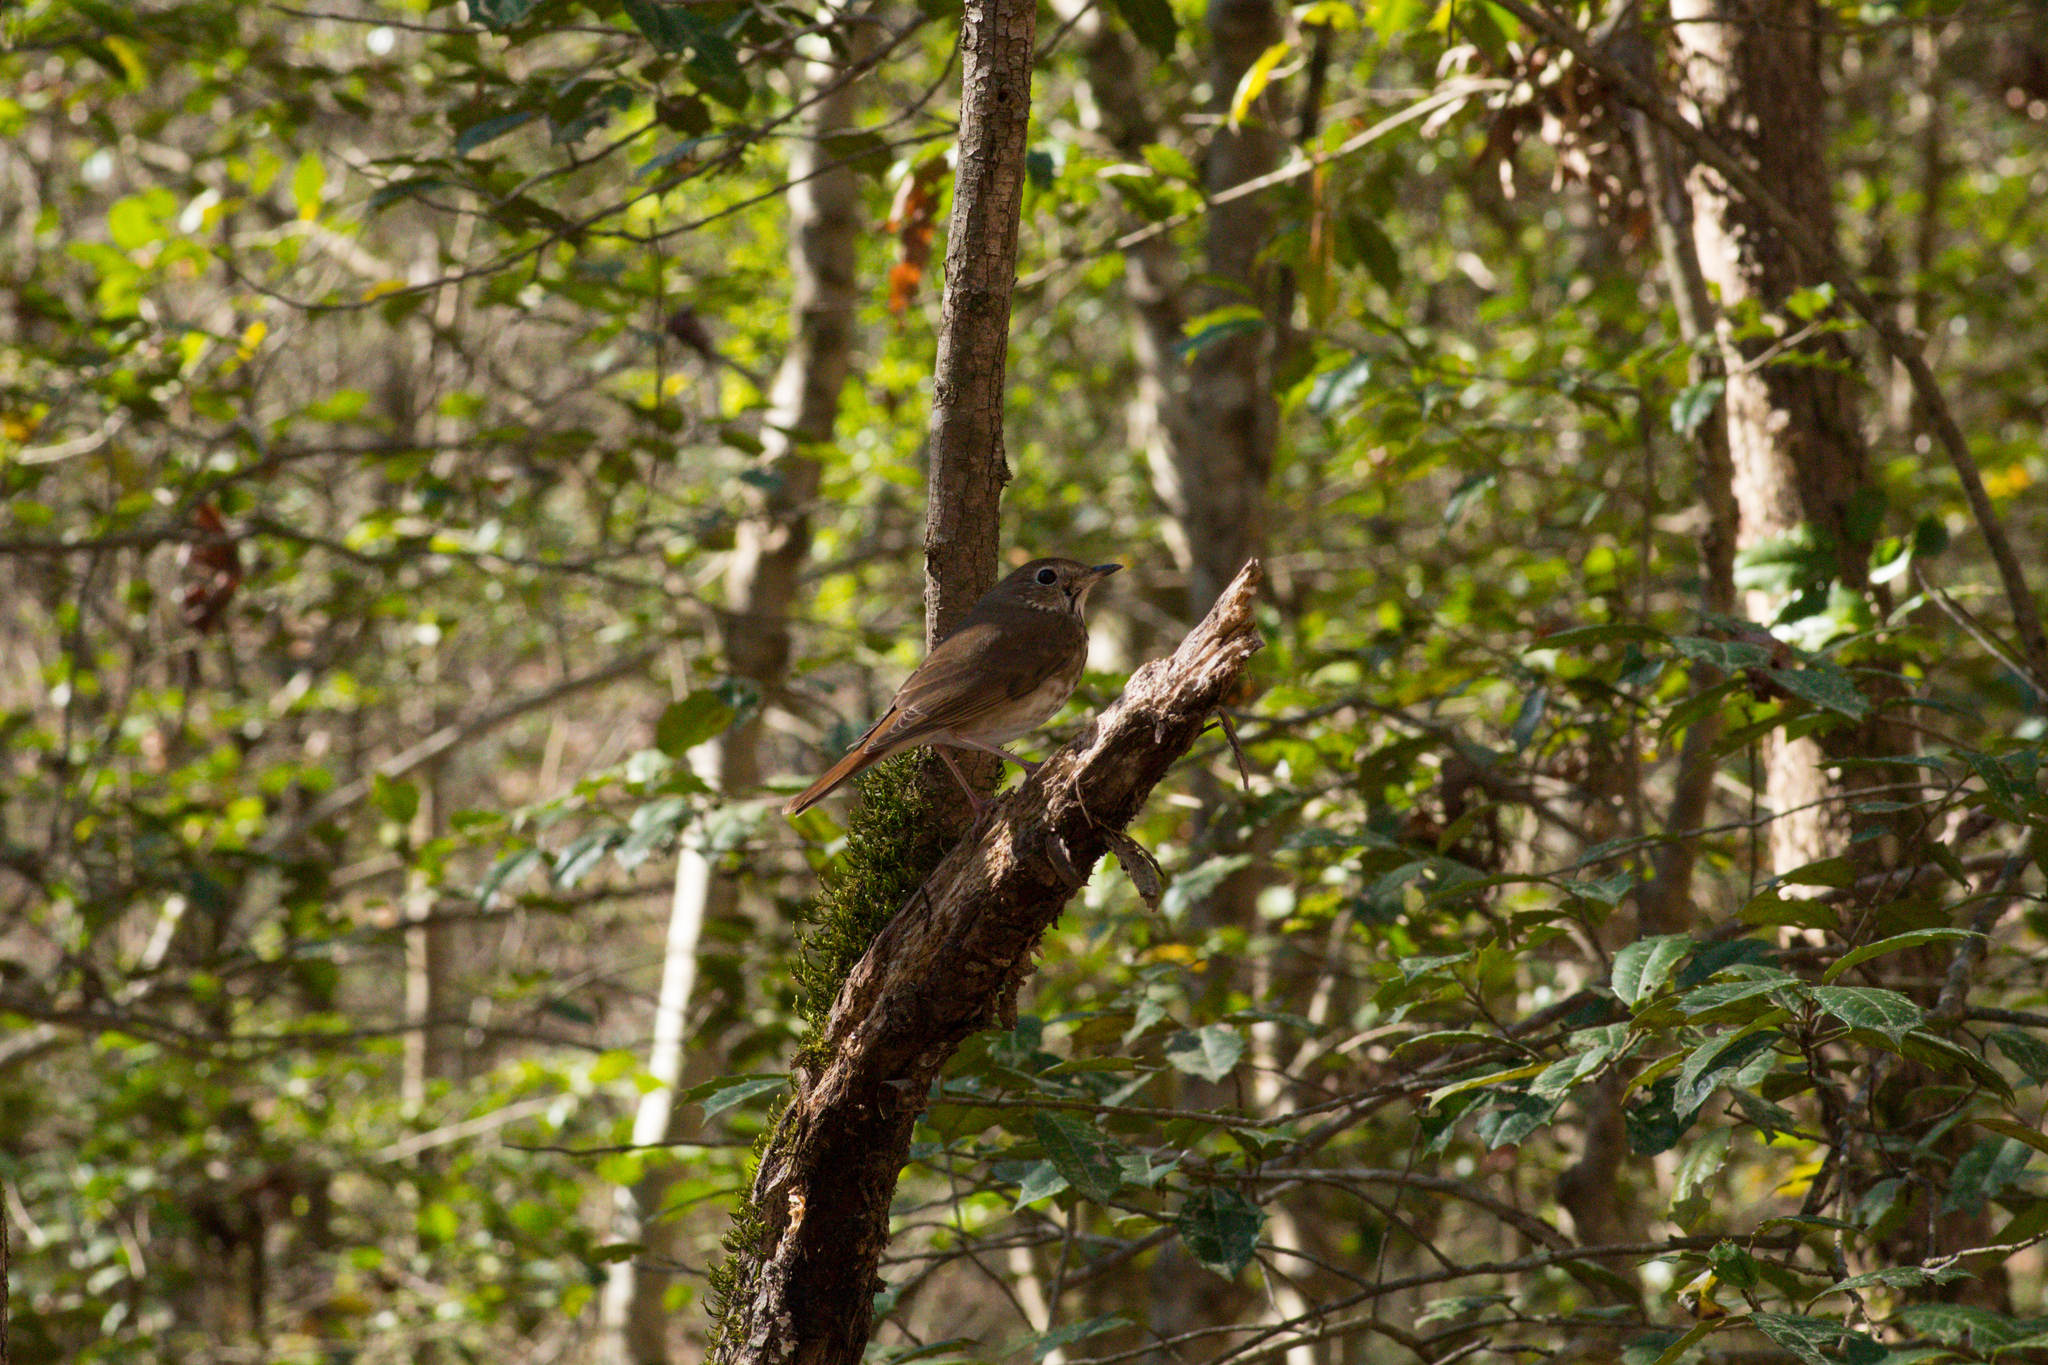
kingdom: Animalia
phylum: Chordata
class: Aves
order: Passeriformes
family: Turdidae
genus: Catharus
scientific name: Catharus guttatus
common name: Hermit thrush
